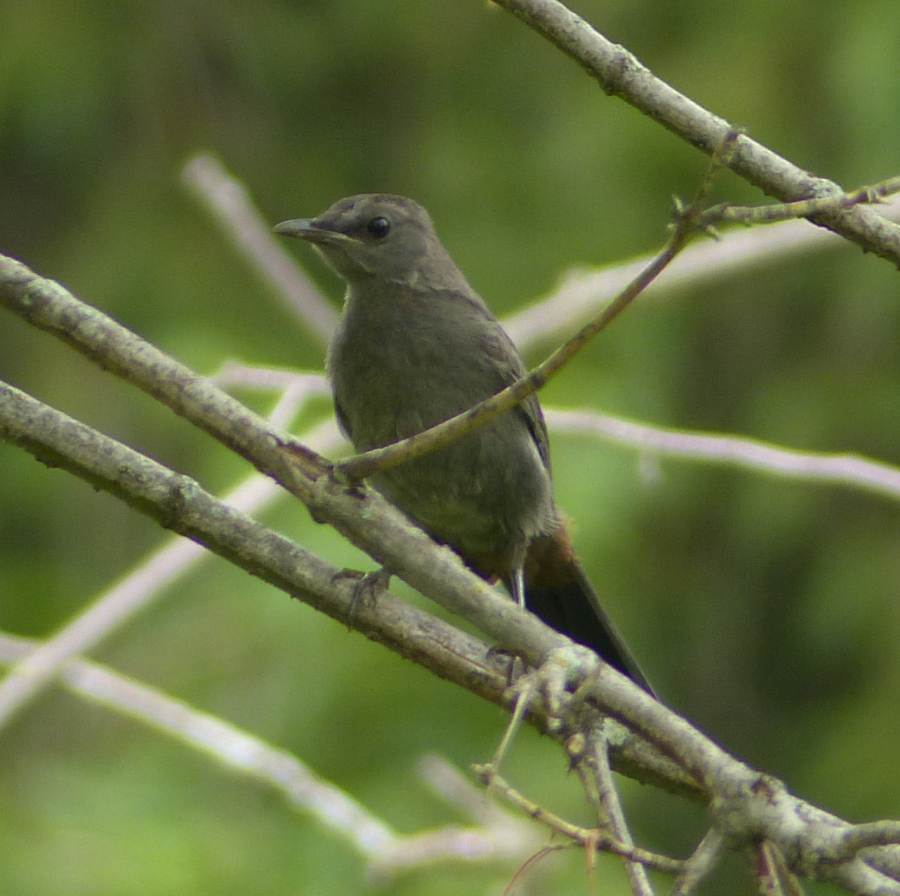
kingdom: Animalia
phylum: Chordata
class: Aves
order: Passeriformes
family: Mimidae
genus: Dumetella
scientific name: Dumetella carolinensis
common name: Gray catbird
